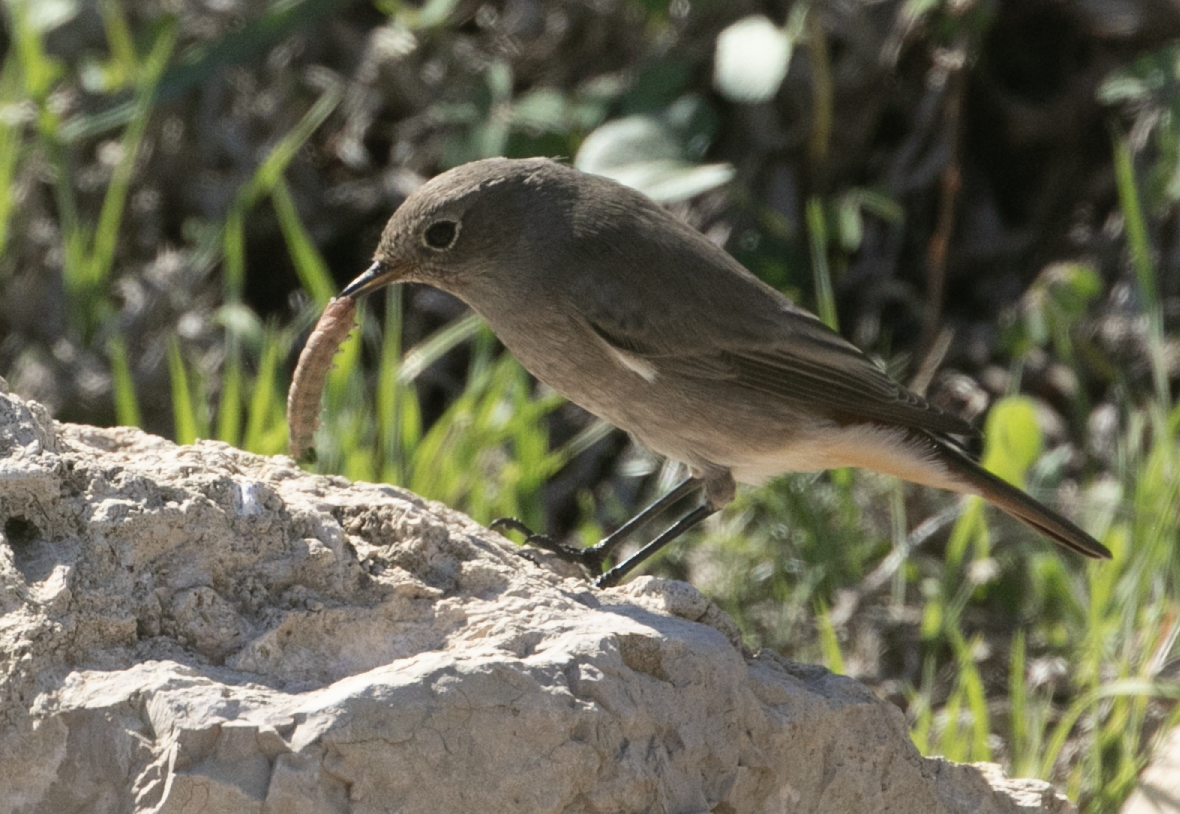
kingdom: Animalia
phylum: Chordata
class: Aves
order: Passeriformes
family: Muscicapidae
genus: Phoenicurus
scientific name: Phoenicurus ochruros
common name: Black redstart
